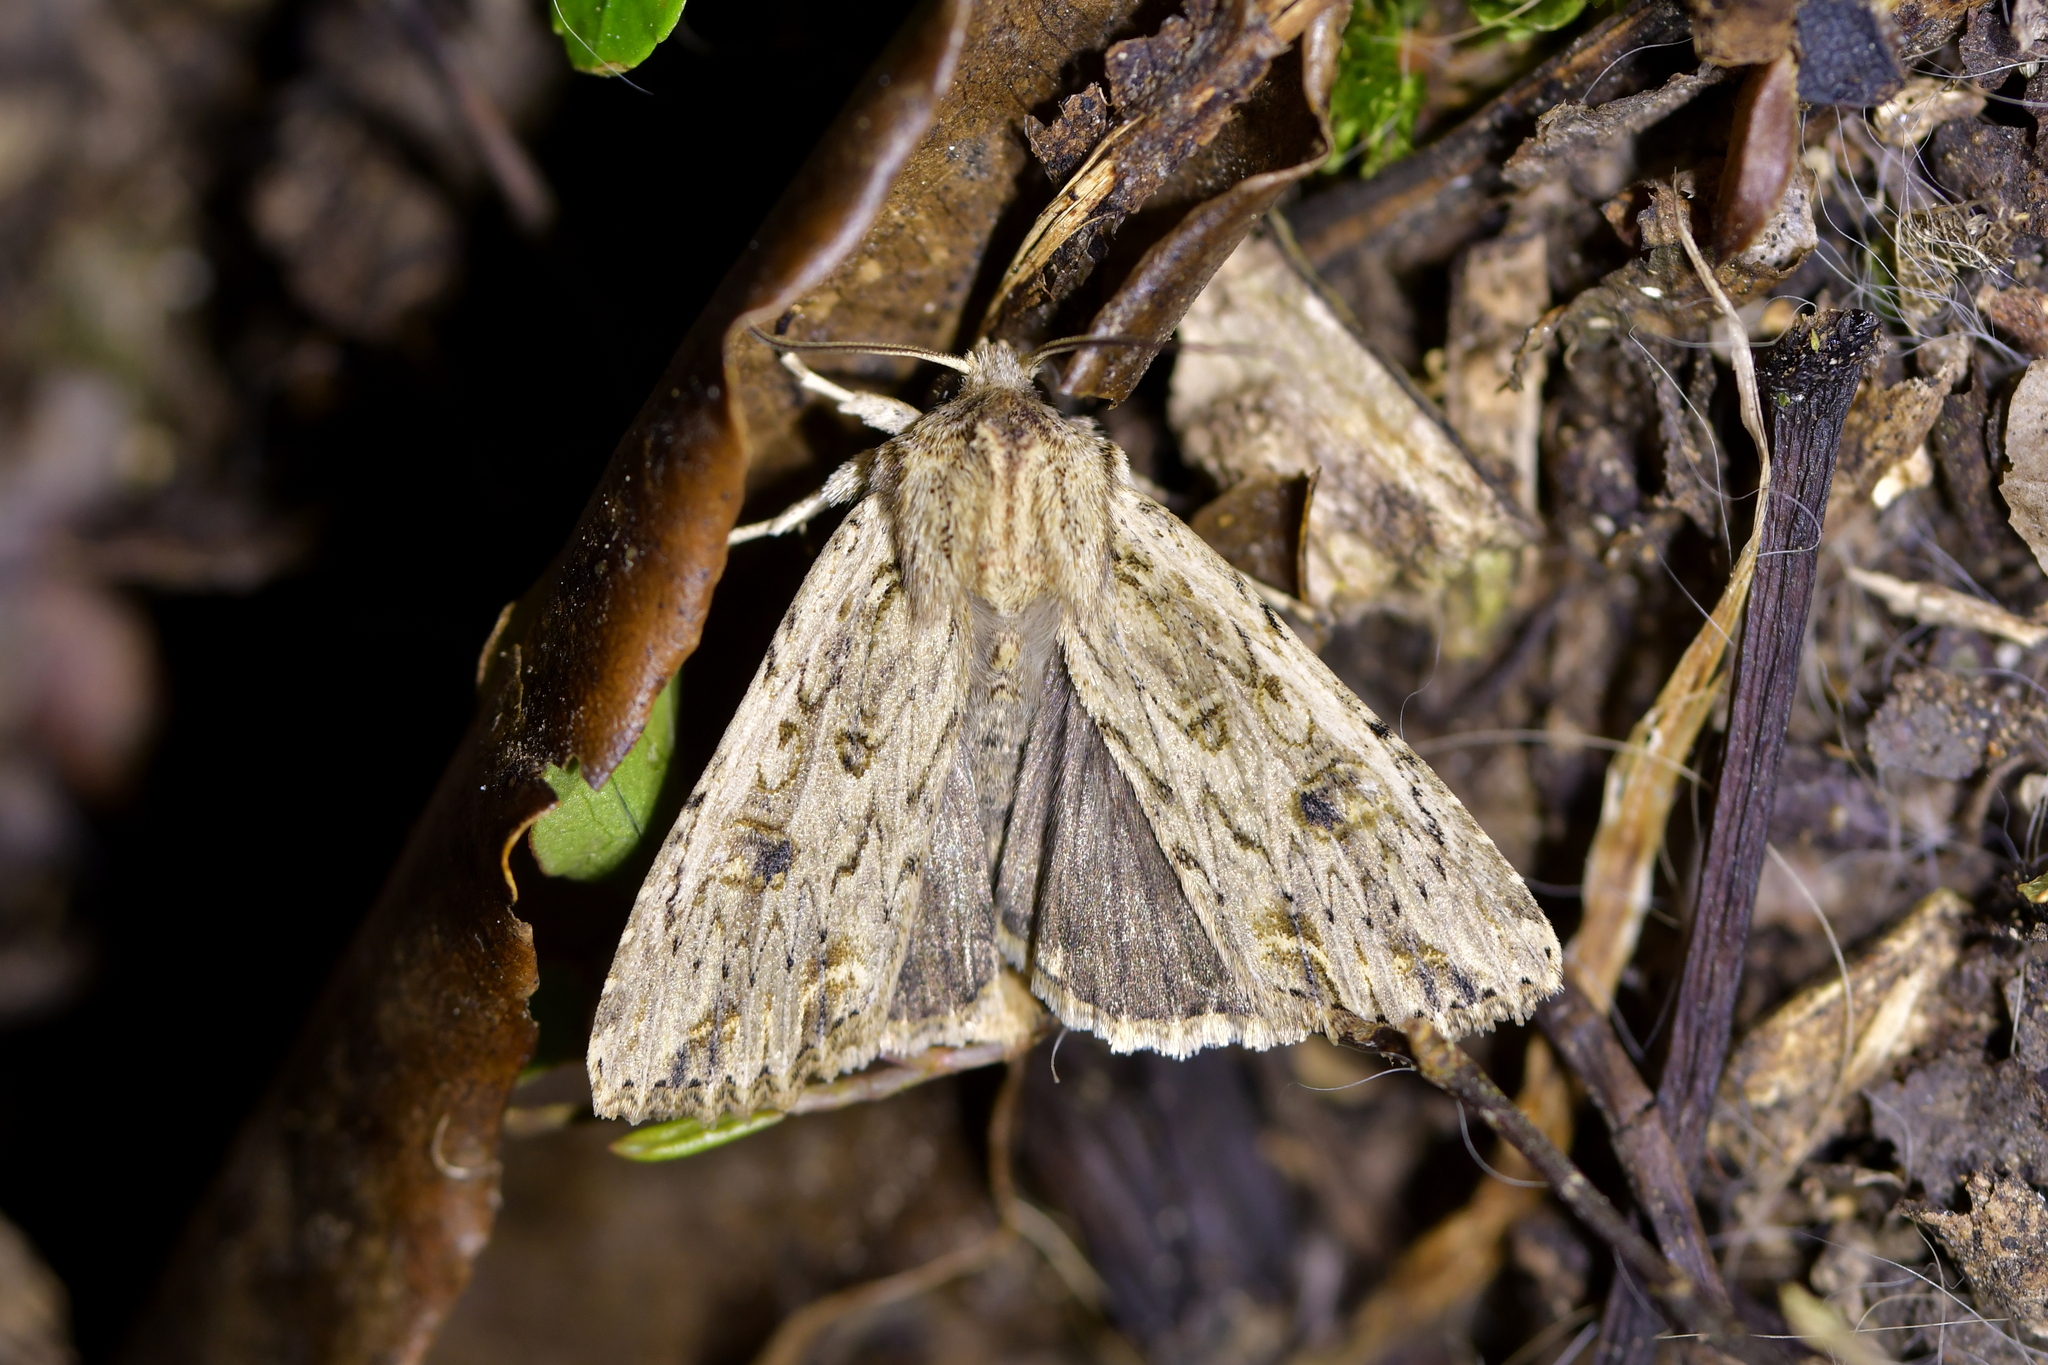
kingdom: Animalia
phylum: Arthropoda
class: Insecta
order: Lepidoptera
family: Noctuidae
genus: Ichneutica
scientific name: Ichneutica lignana
